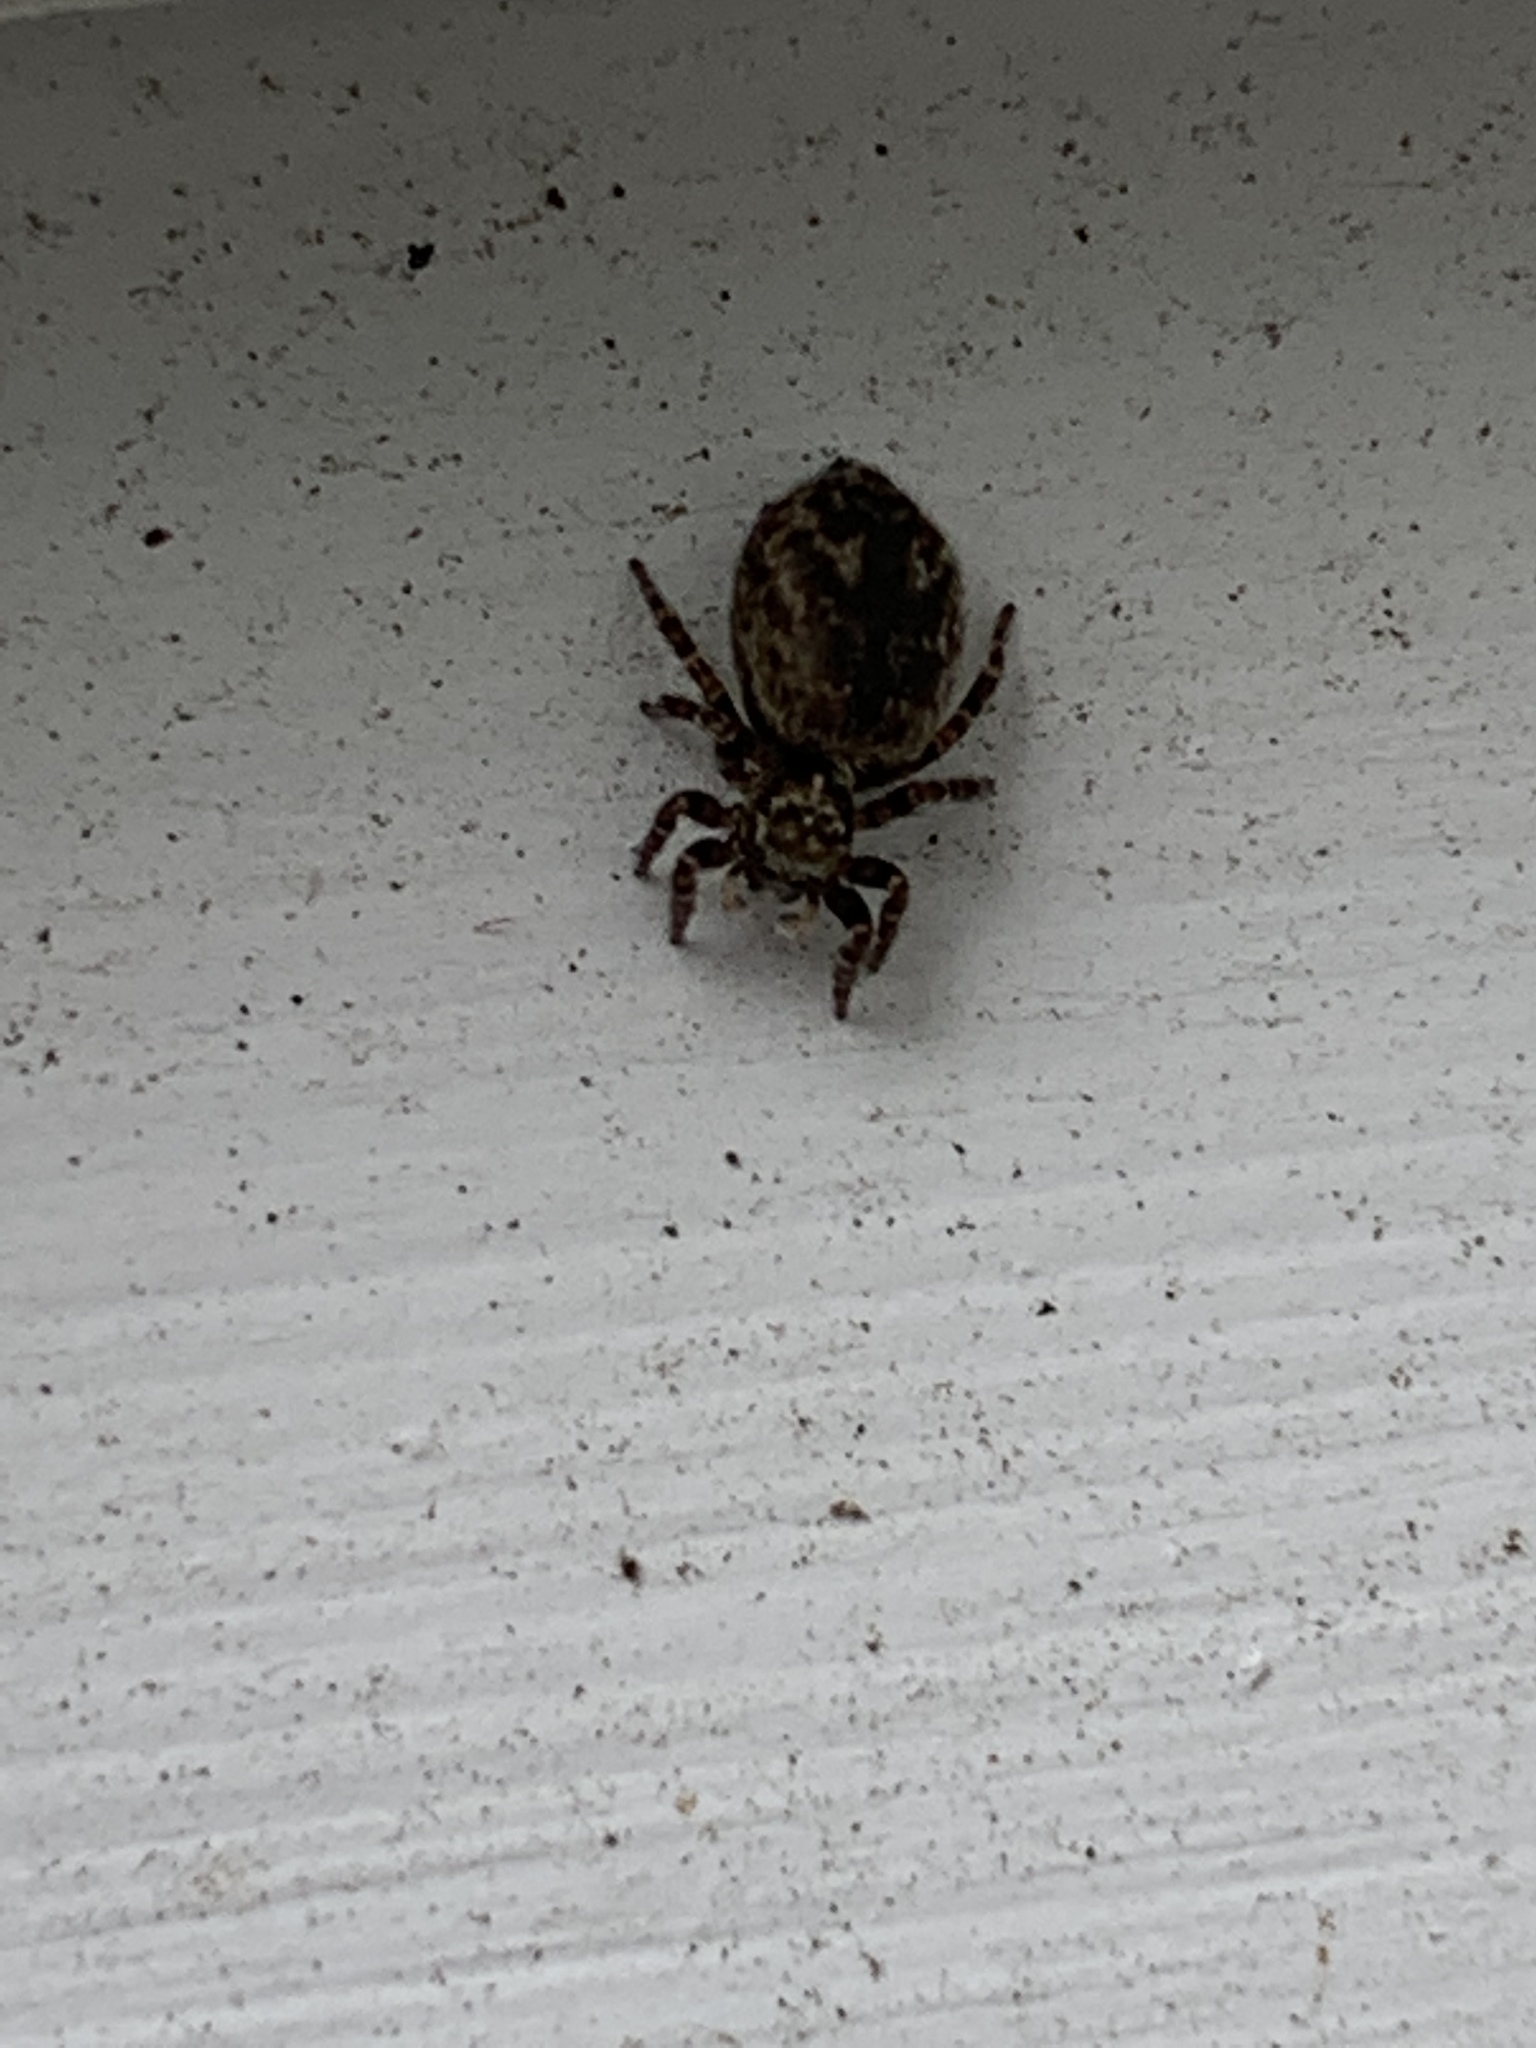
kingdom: Animalia
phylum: Arthropoda
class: Arachnida
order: Araneae
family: Salticidae
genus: Pseudeuophrys
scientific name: Pseudeuophrys erratica
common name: Jumping spider
